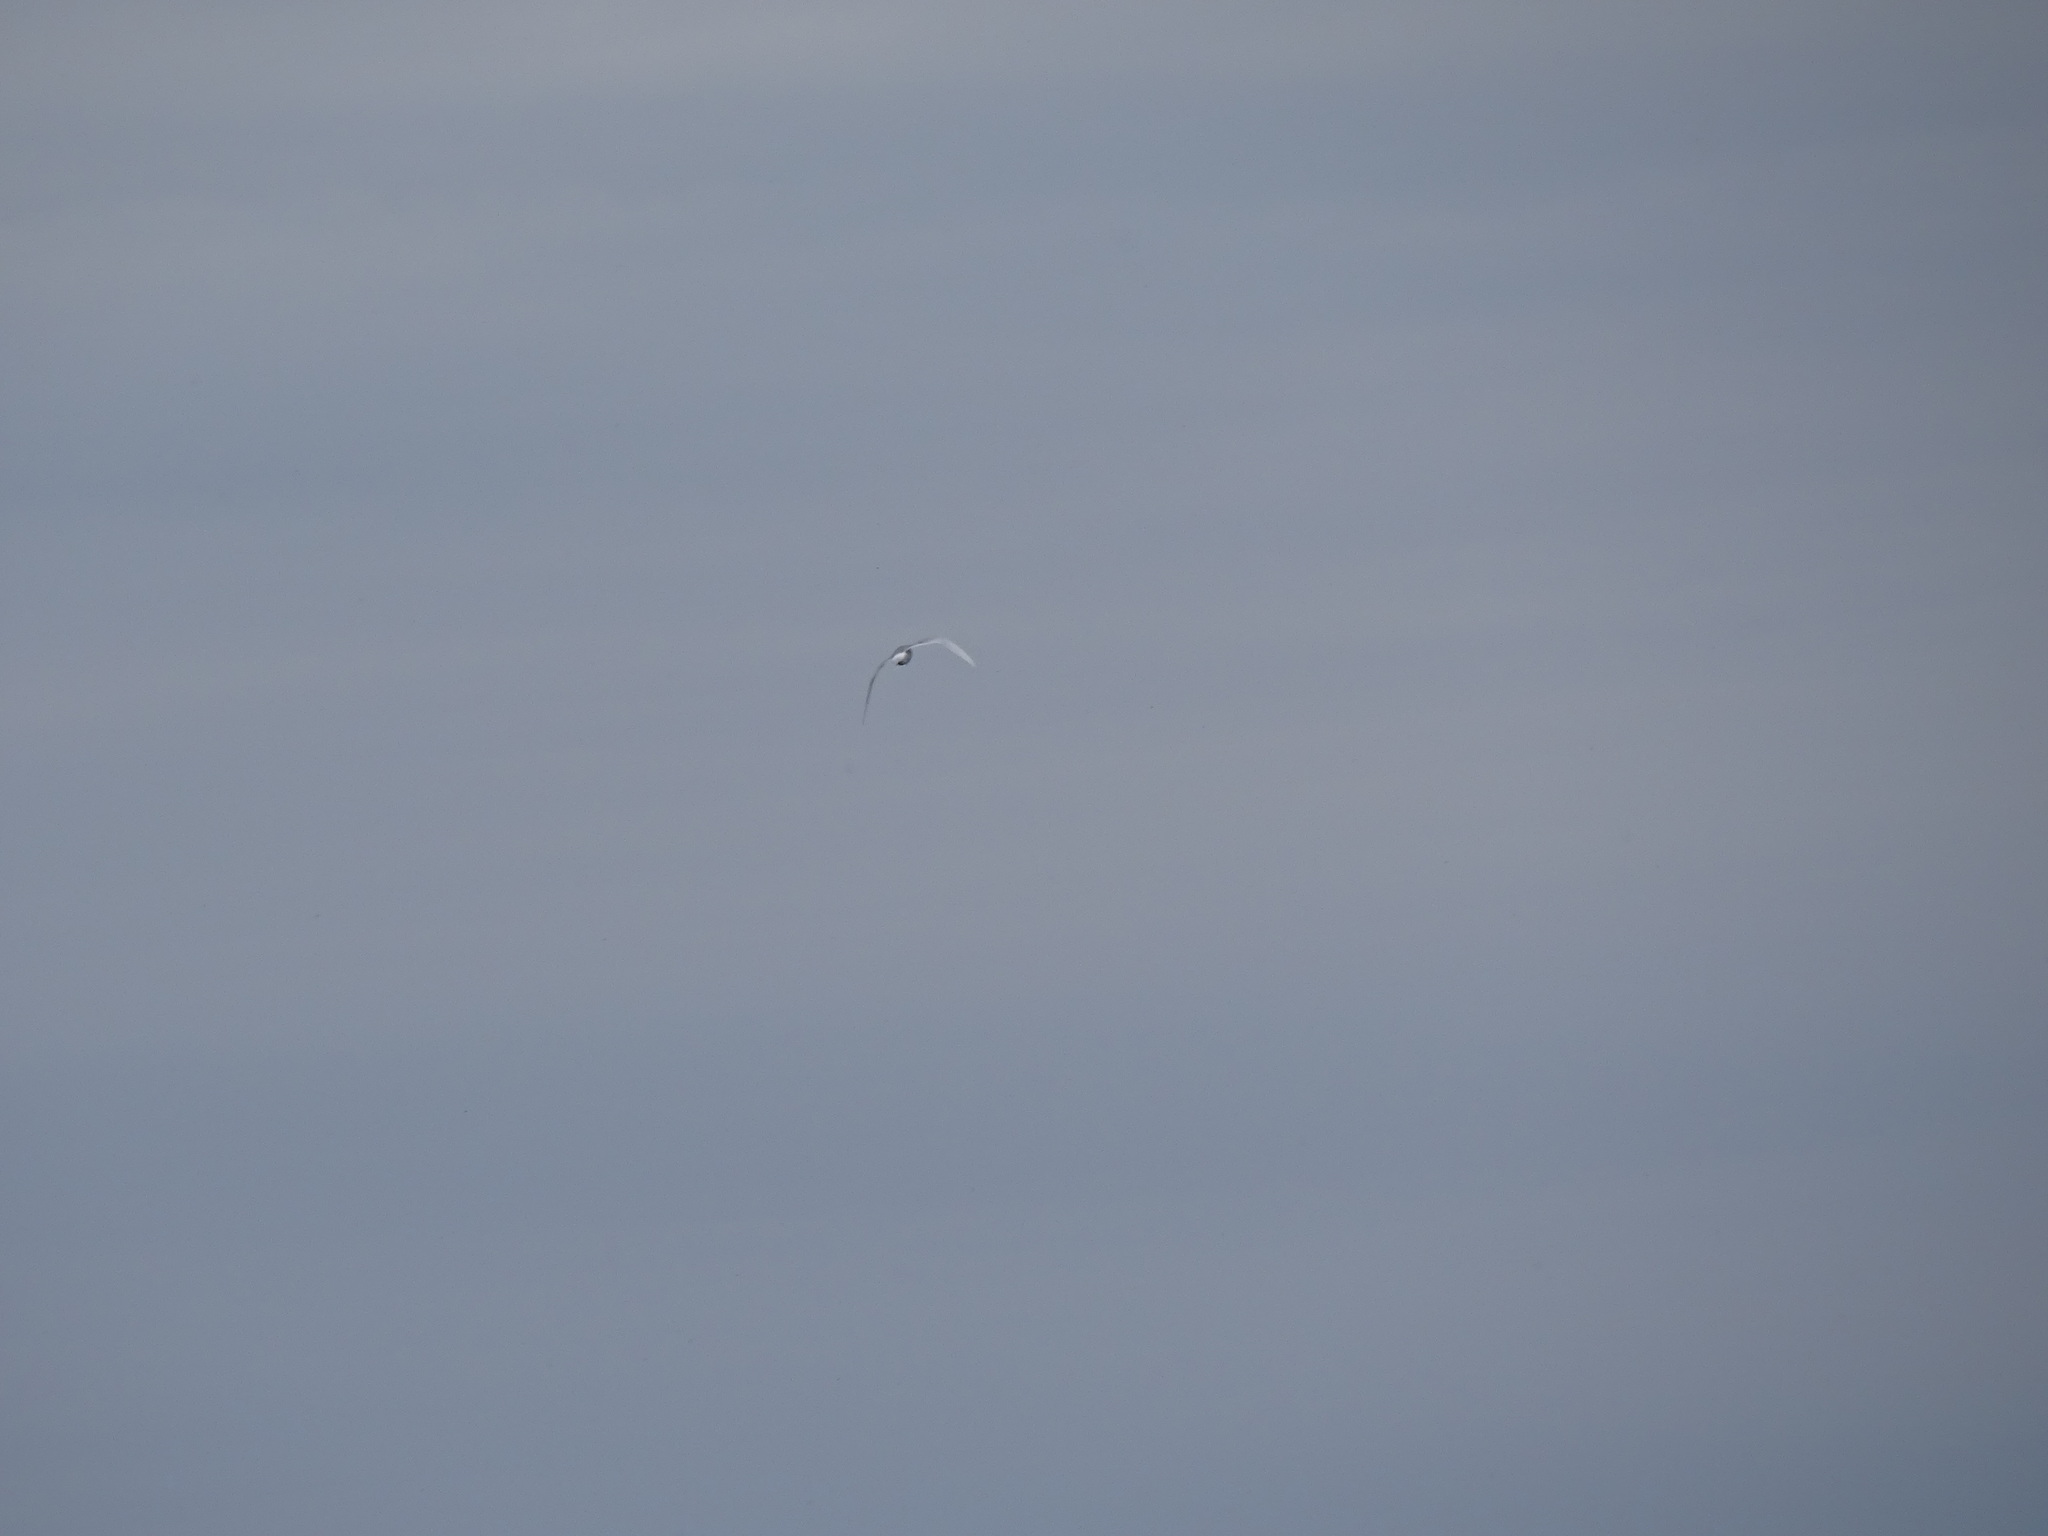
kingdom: Animalia
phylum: Chordata
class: Aves
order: Charadriiformes
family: Laridae
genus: Sterna
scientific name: Sterna forsteri
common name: Forster's tern
